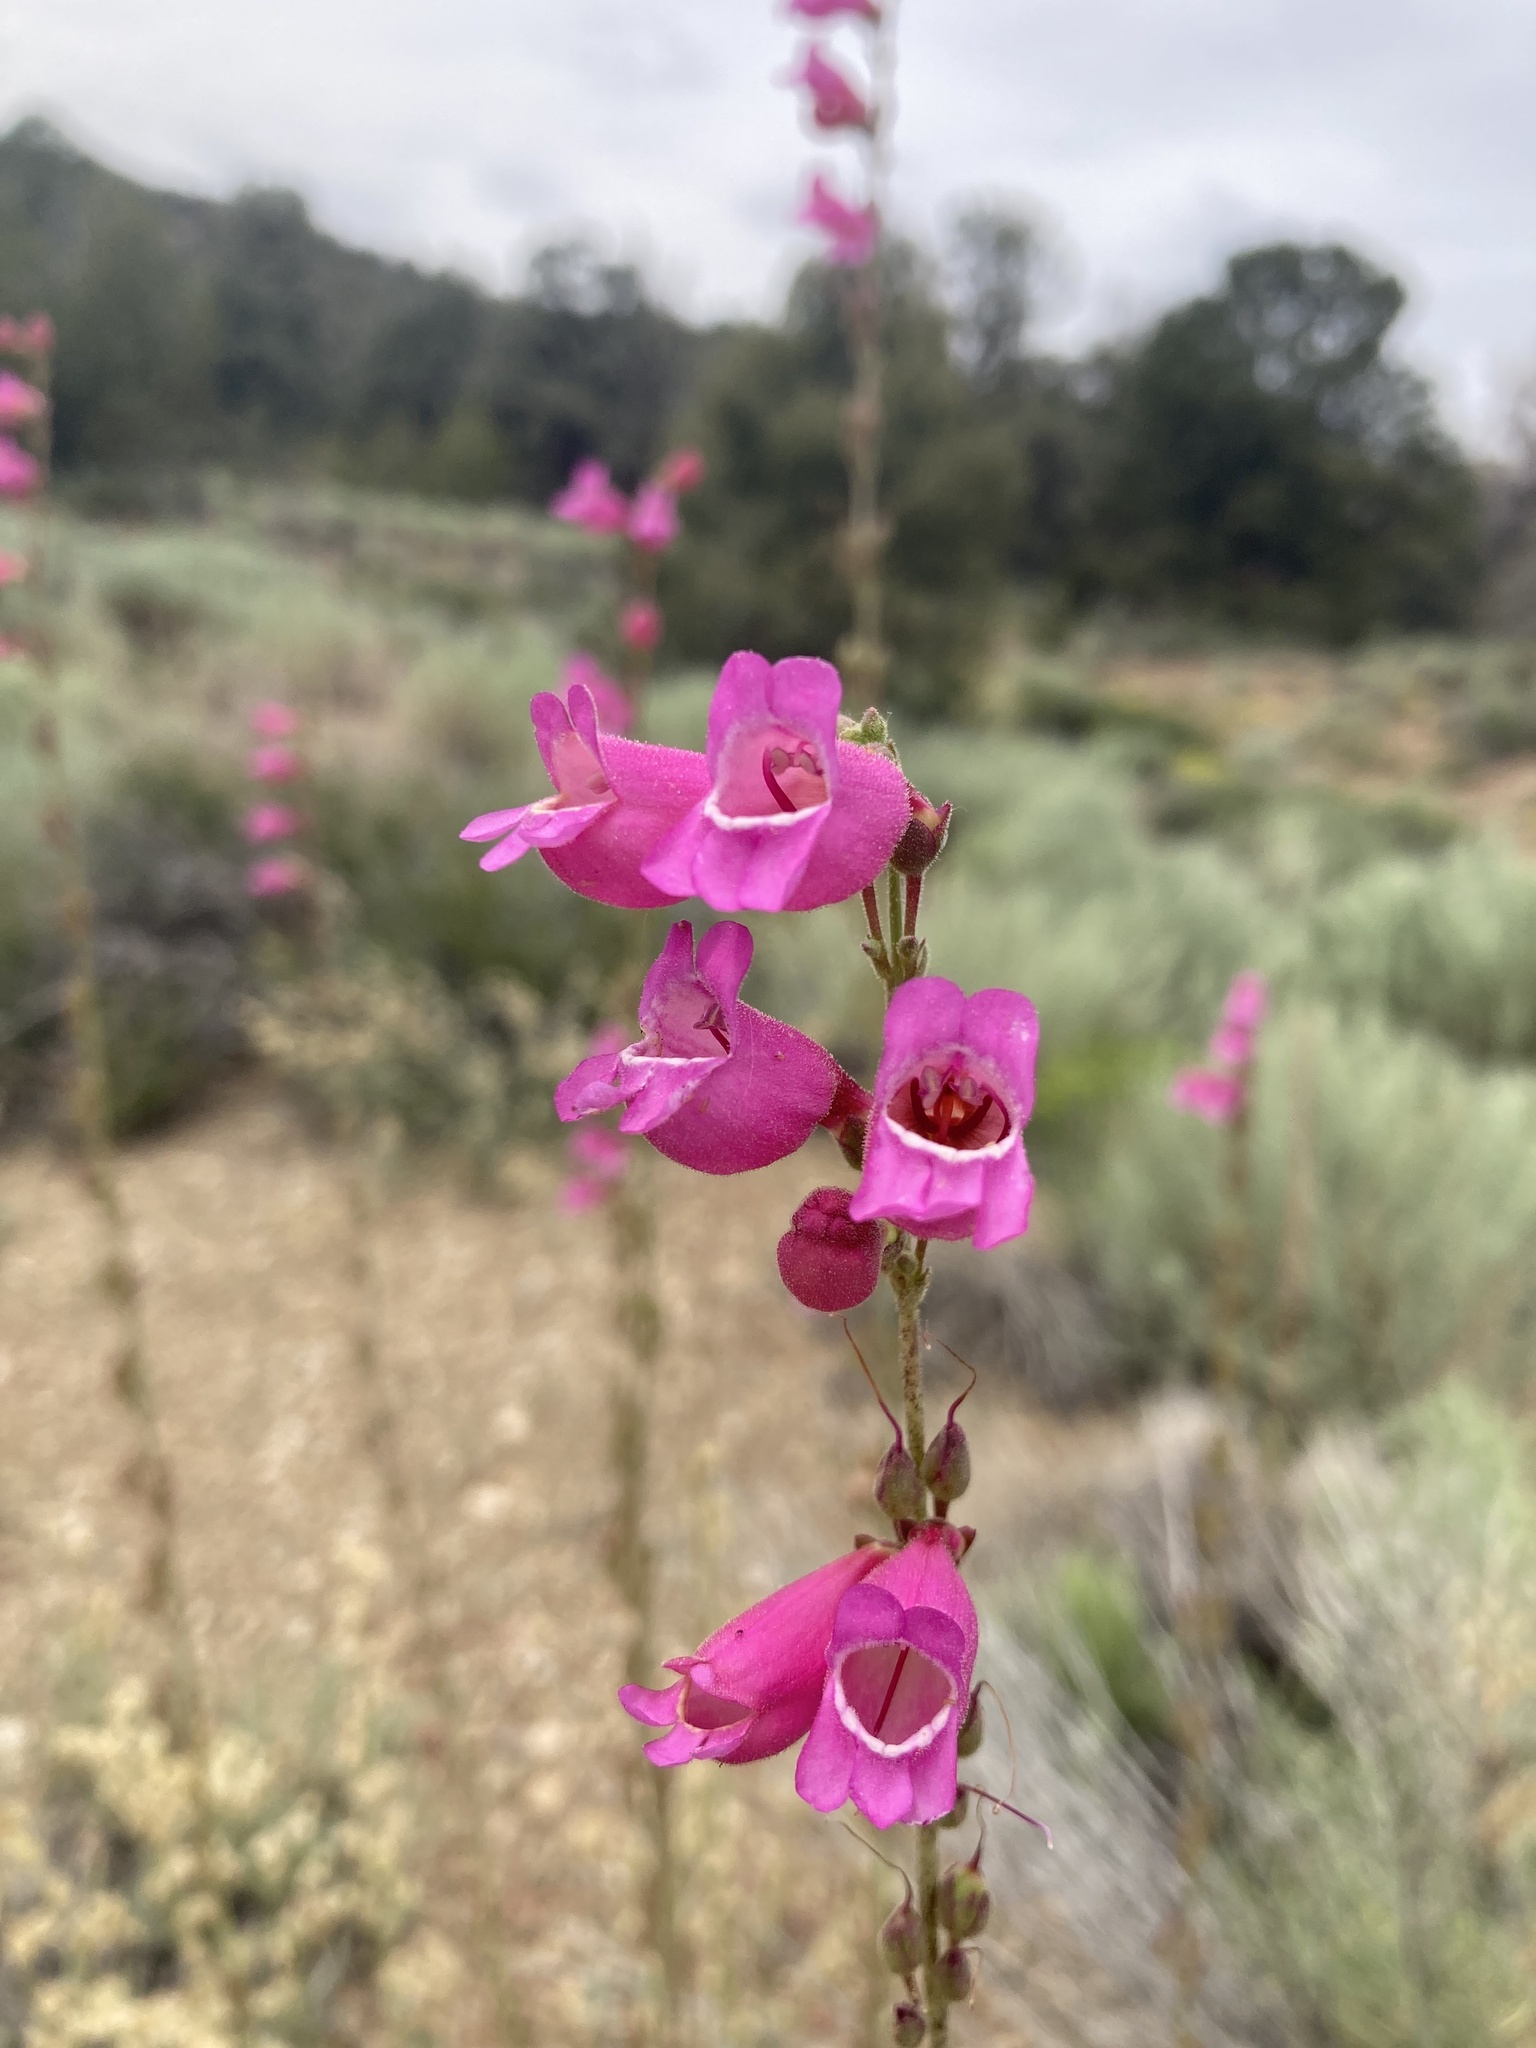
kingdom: Plantae
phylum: Tracheophyta
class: Magnoliopsida
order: Lamiales
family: Plantaginaceae
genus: Penstemon
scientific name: Penstemon floridus
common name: Panamint penstemon
